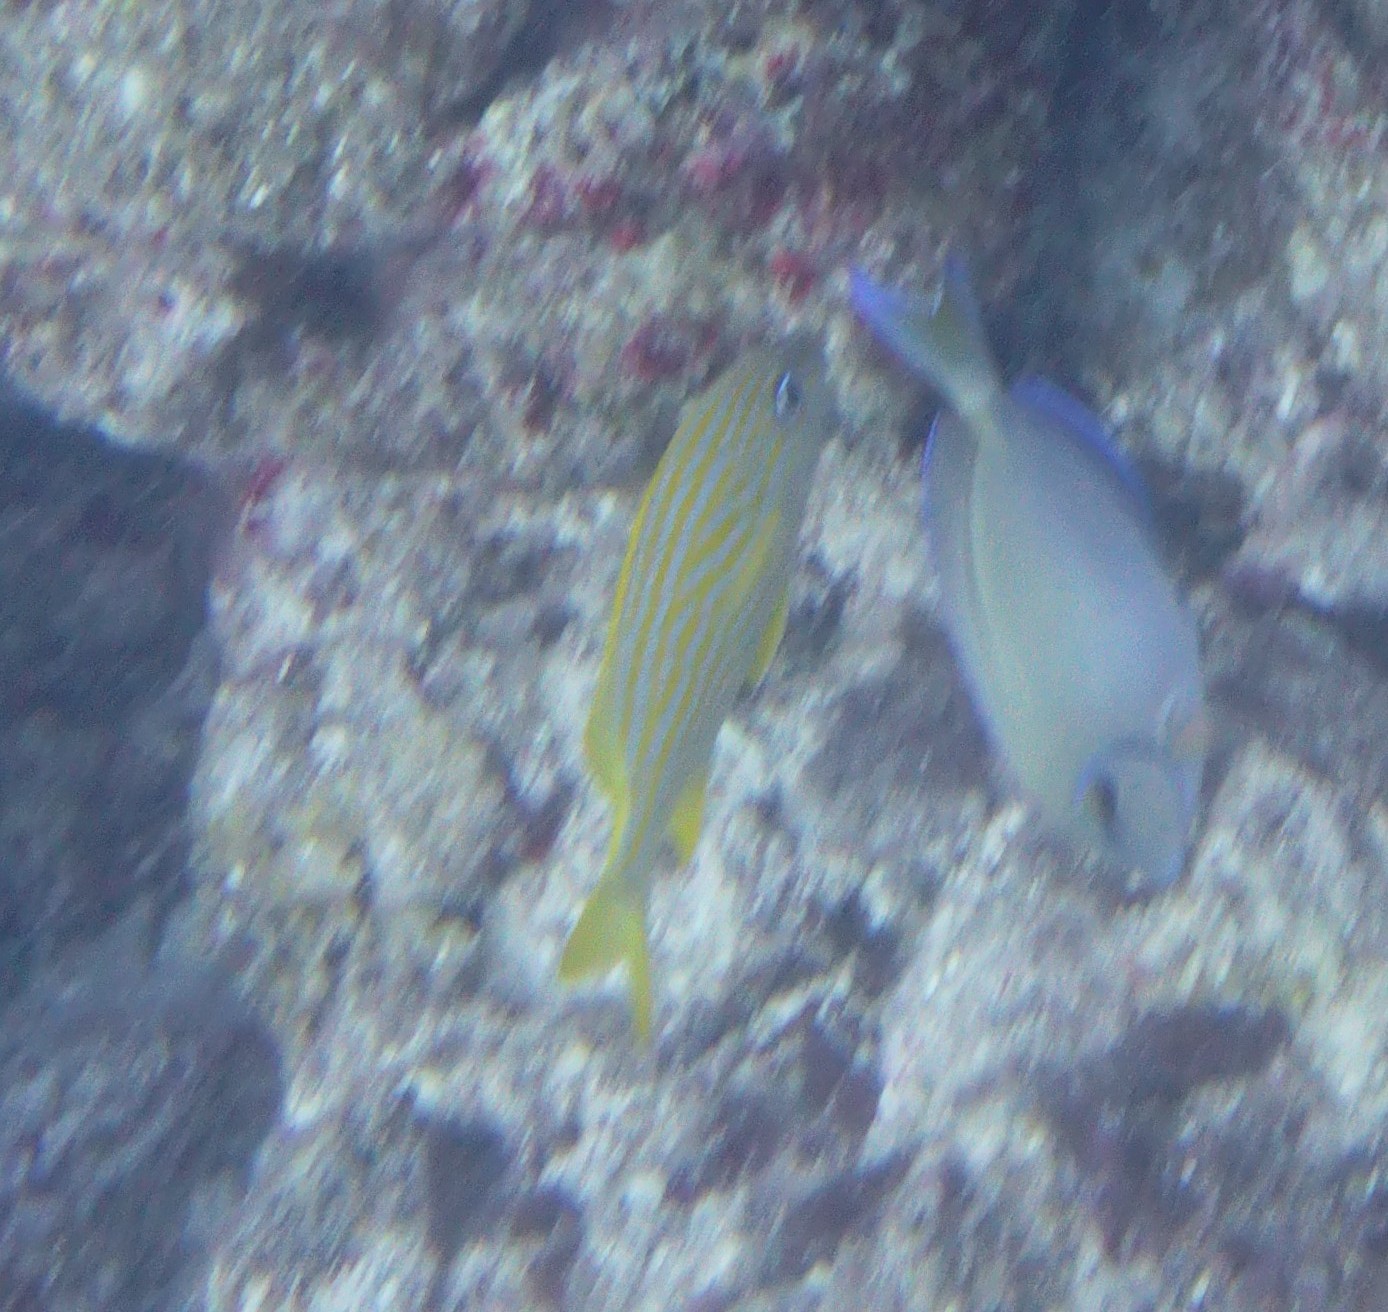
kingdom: Animalia
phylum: Chordata
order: Perciformes
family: Haemulidae
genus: Haemulon
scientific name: Haemulon flavolineatum
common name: French grunt
